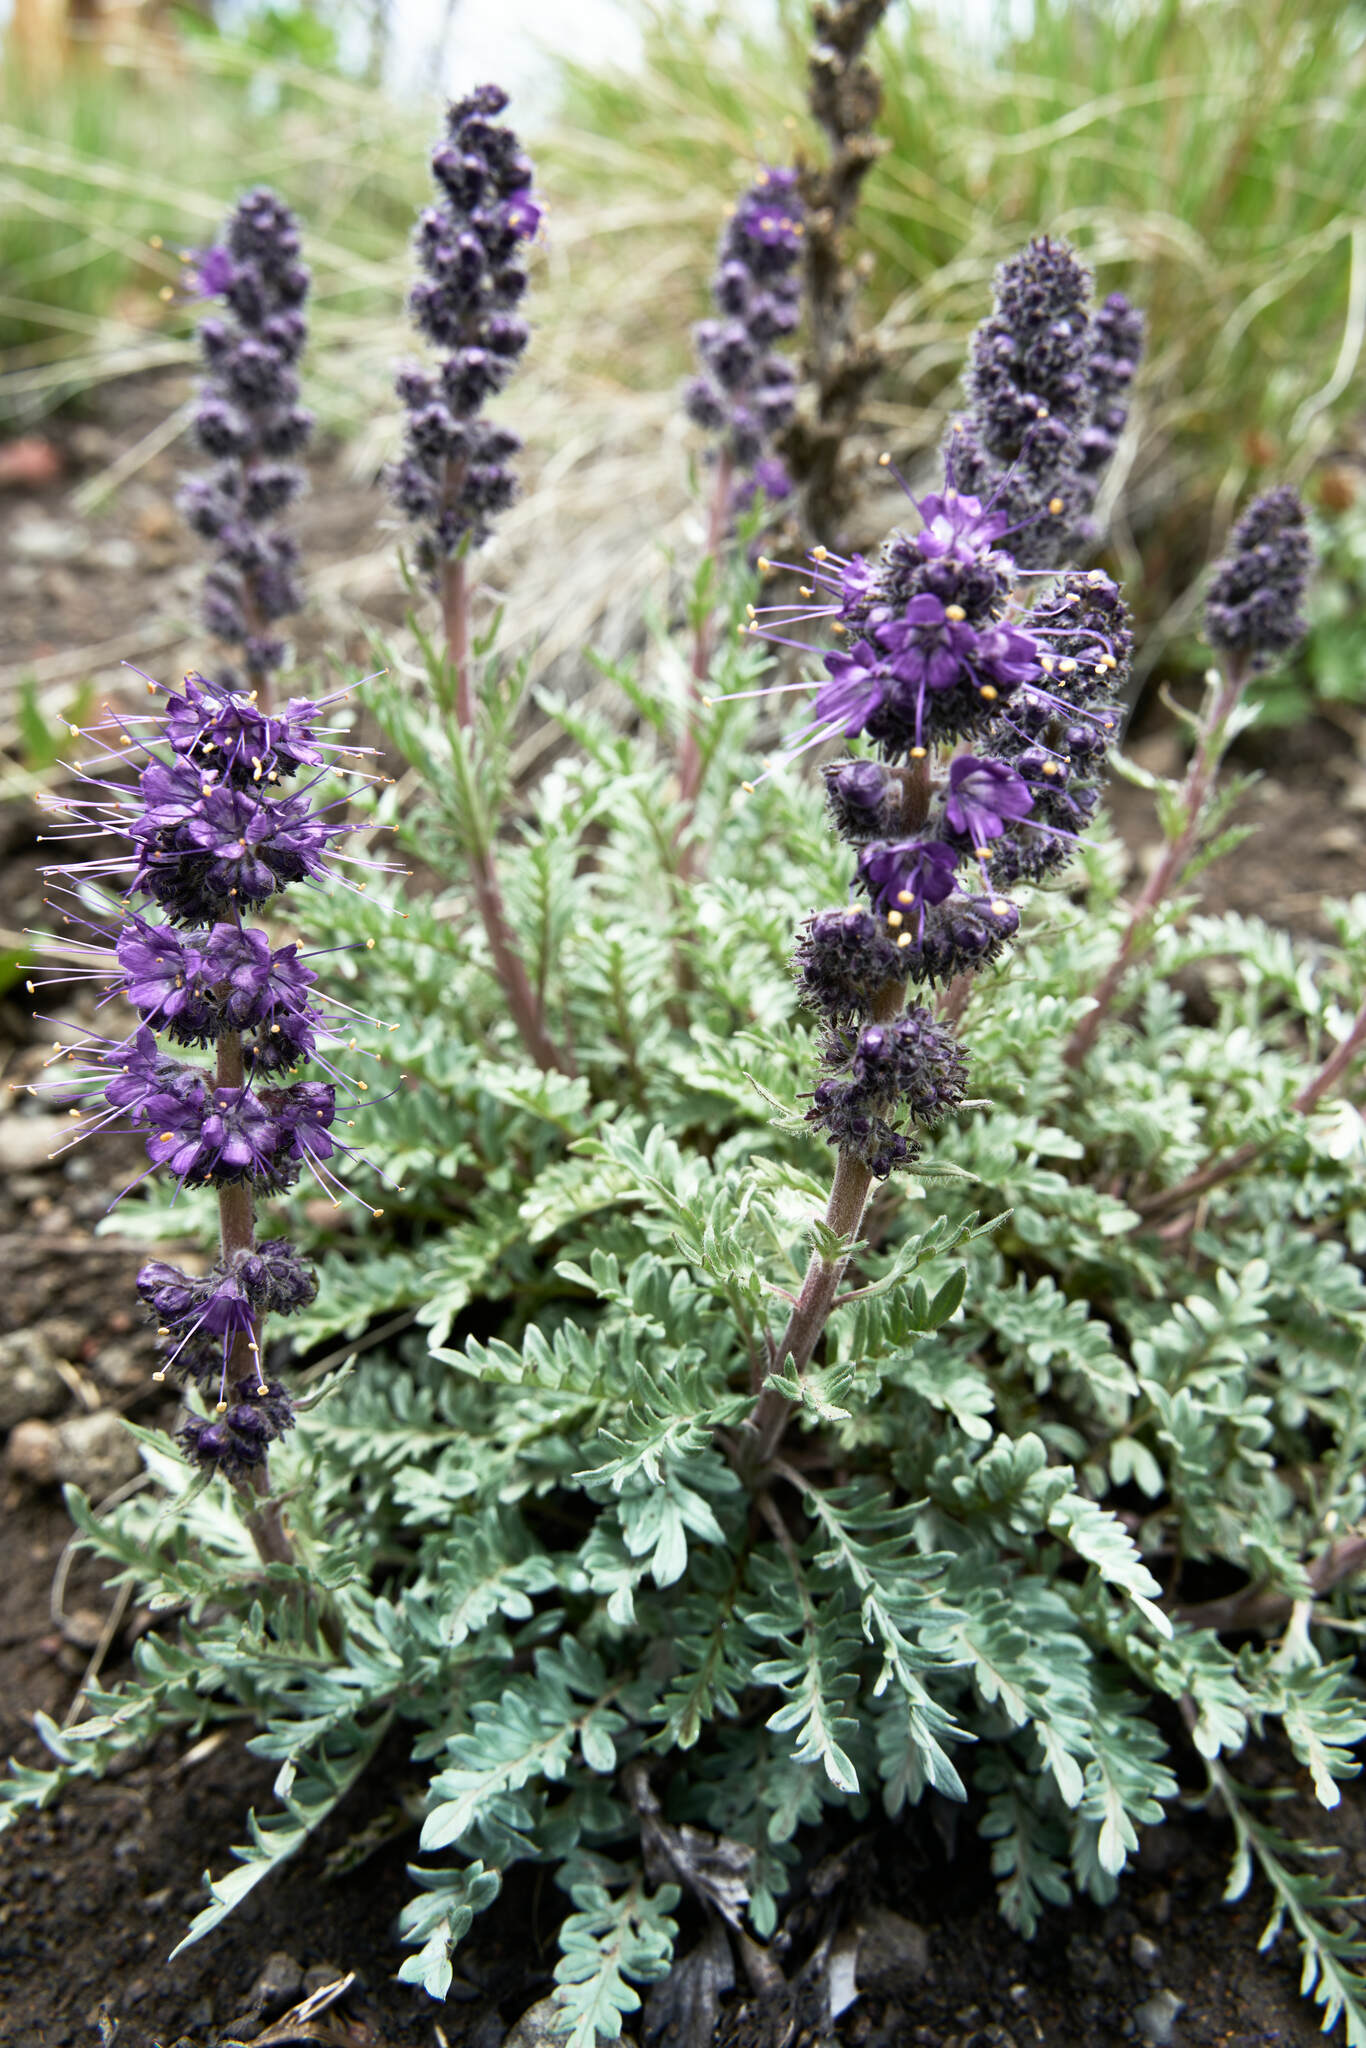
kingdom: Plantae
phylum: Tracheophyta
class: Magnoliopsida
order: Boraginales
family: Hydrophyllaceae
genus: Phacelia
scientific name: Phacelia sericea
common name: Silky phacelia
